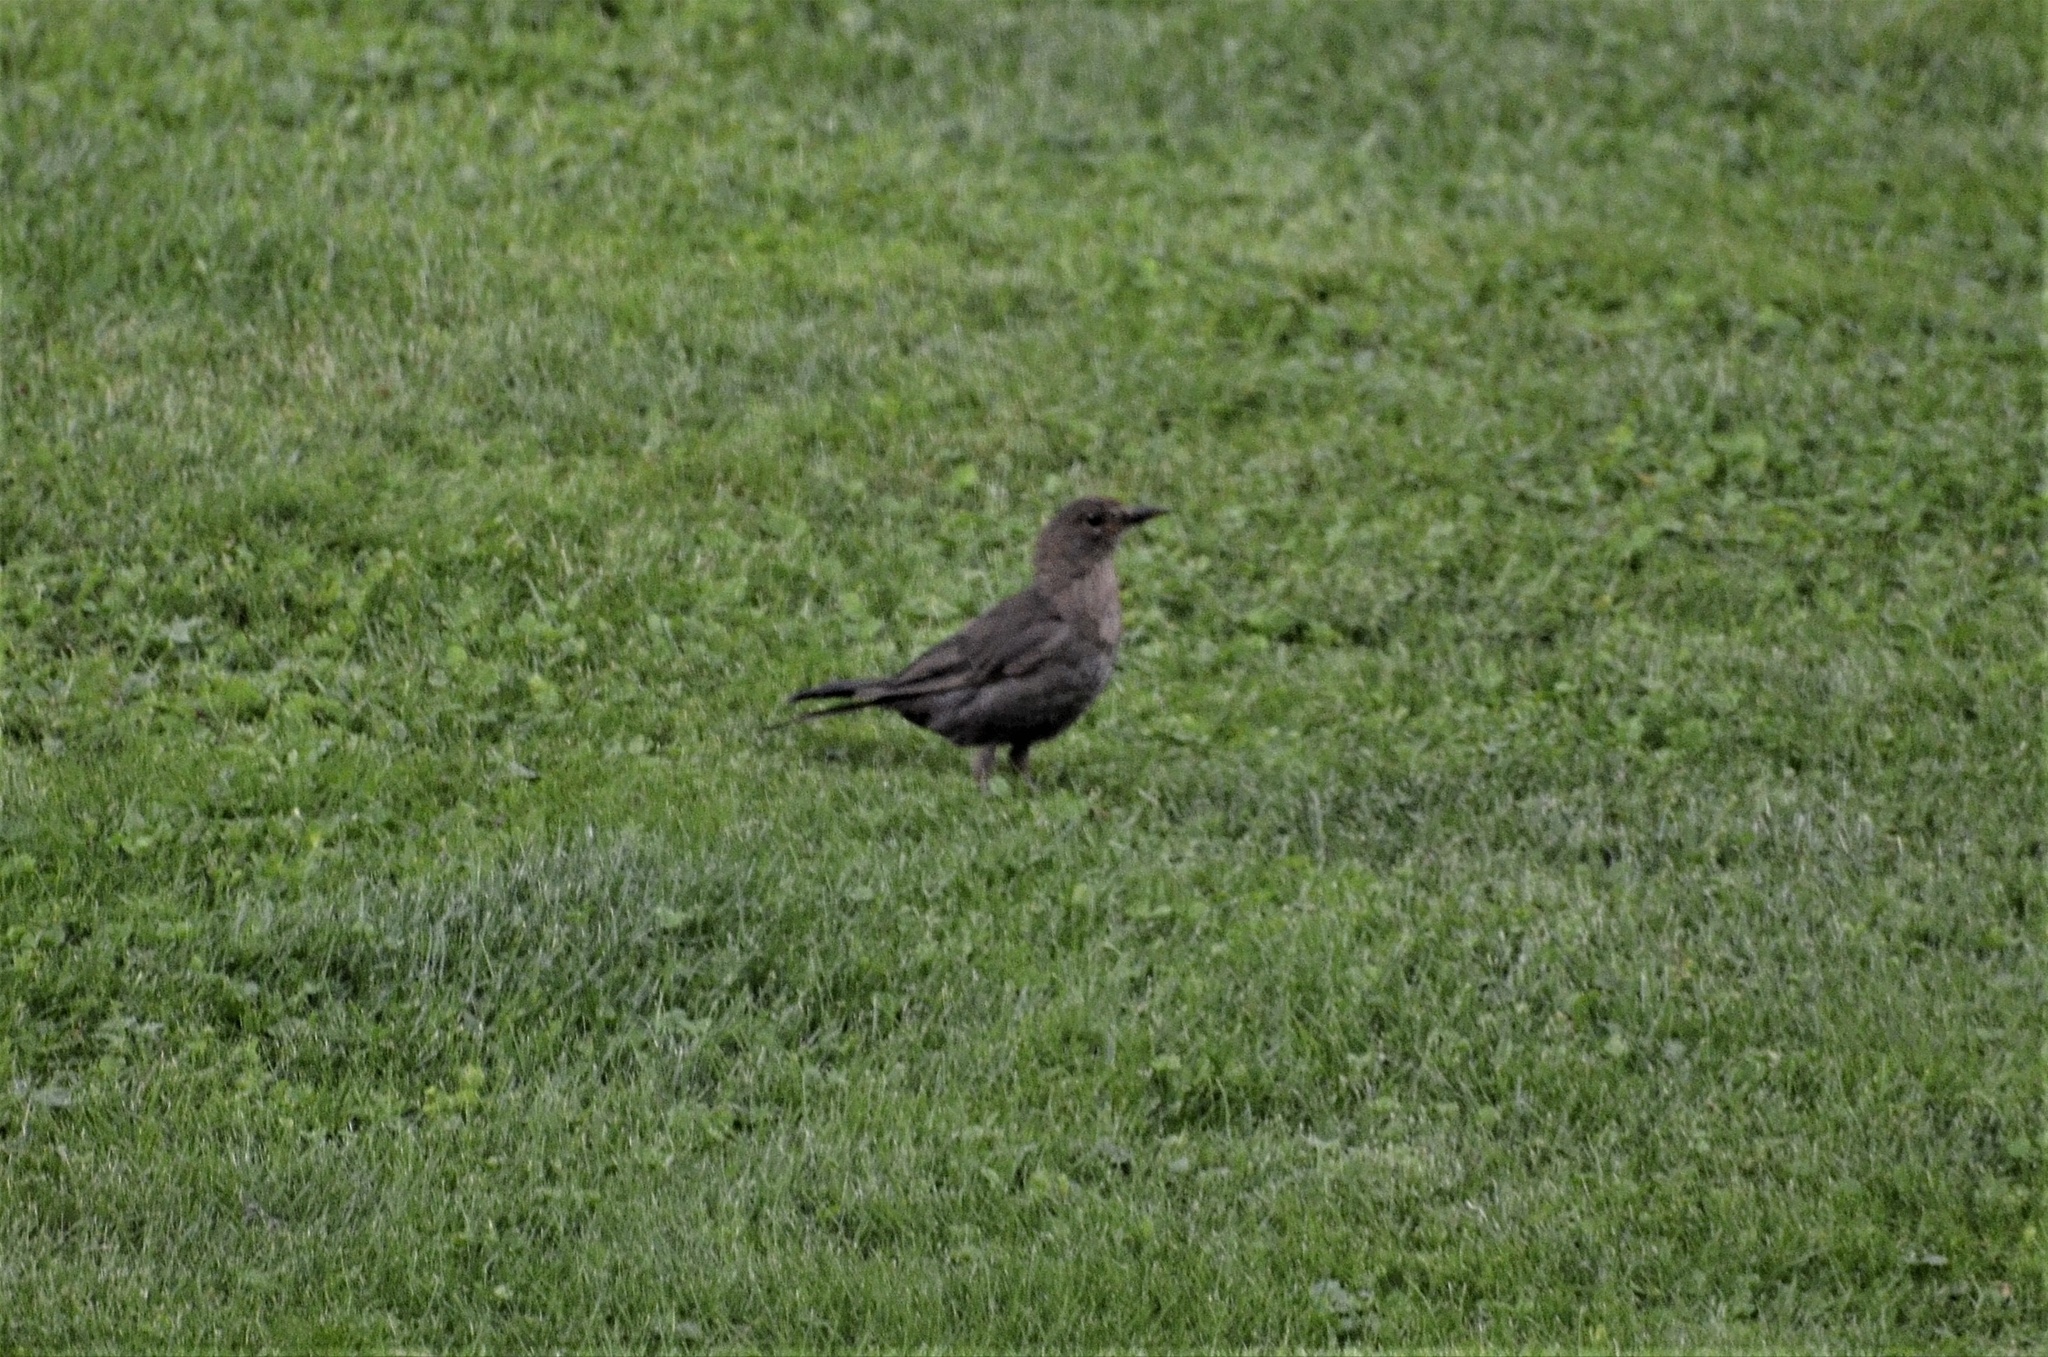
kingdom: Animalia
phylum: Chordata
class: Aves
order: Passeriformes
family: Turdidae
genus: Turdus
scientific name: Turdus merula
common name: Common blackbird
